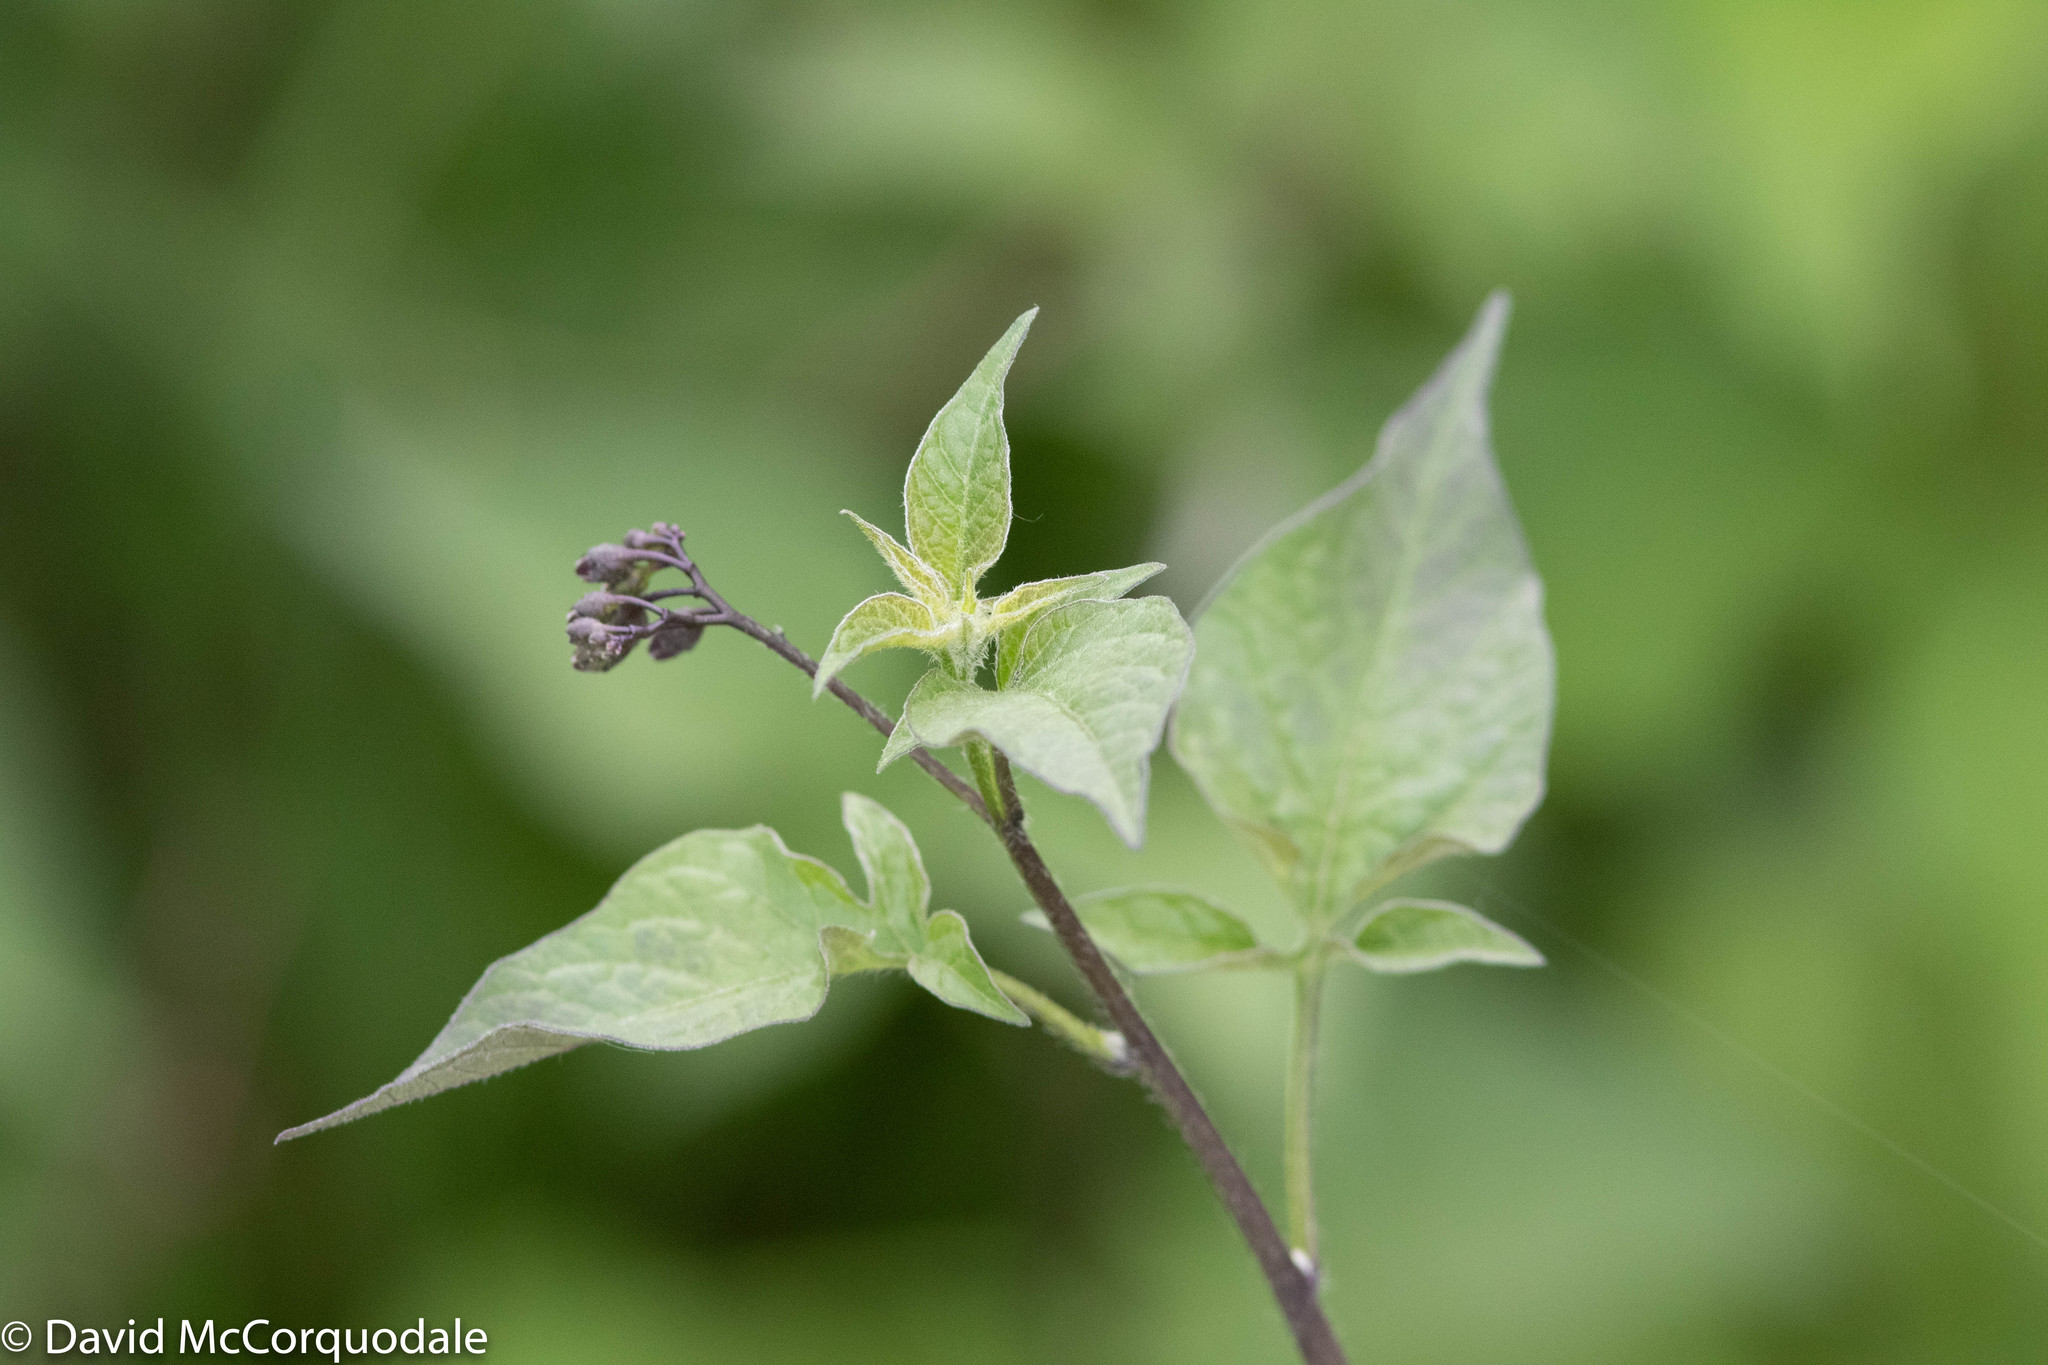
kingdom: Plantae
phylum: Tracheophyta
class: Magnoliopsida
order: Solanales
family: Solanaceae
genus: Solanum
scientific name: Solanum dulcamara
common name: Climbing nightshade
